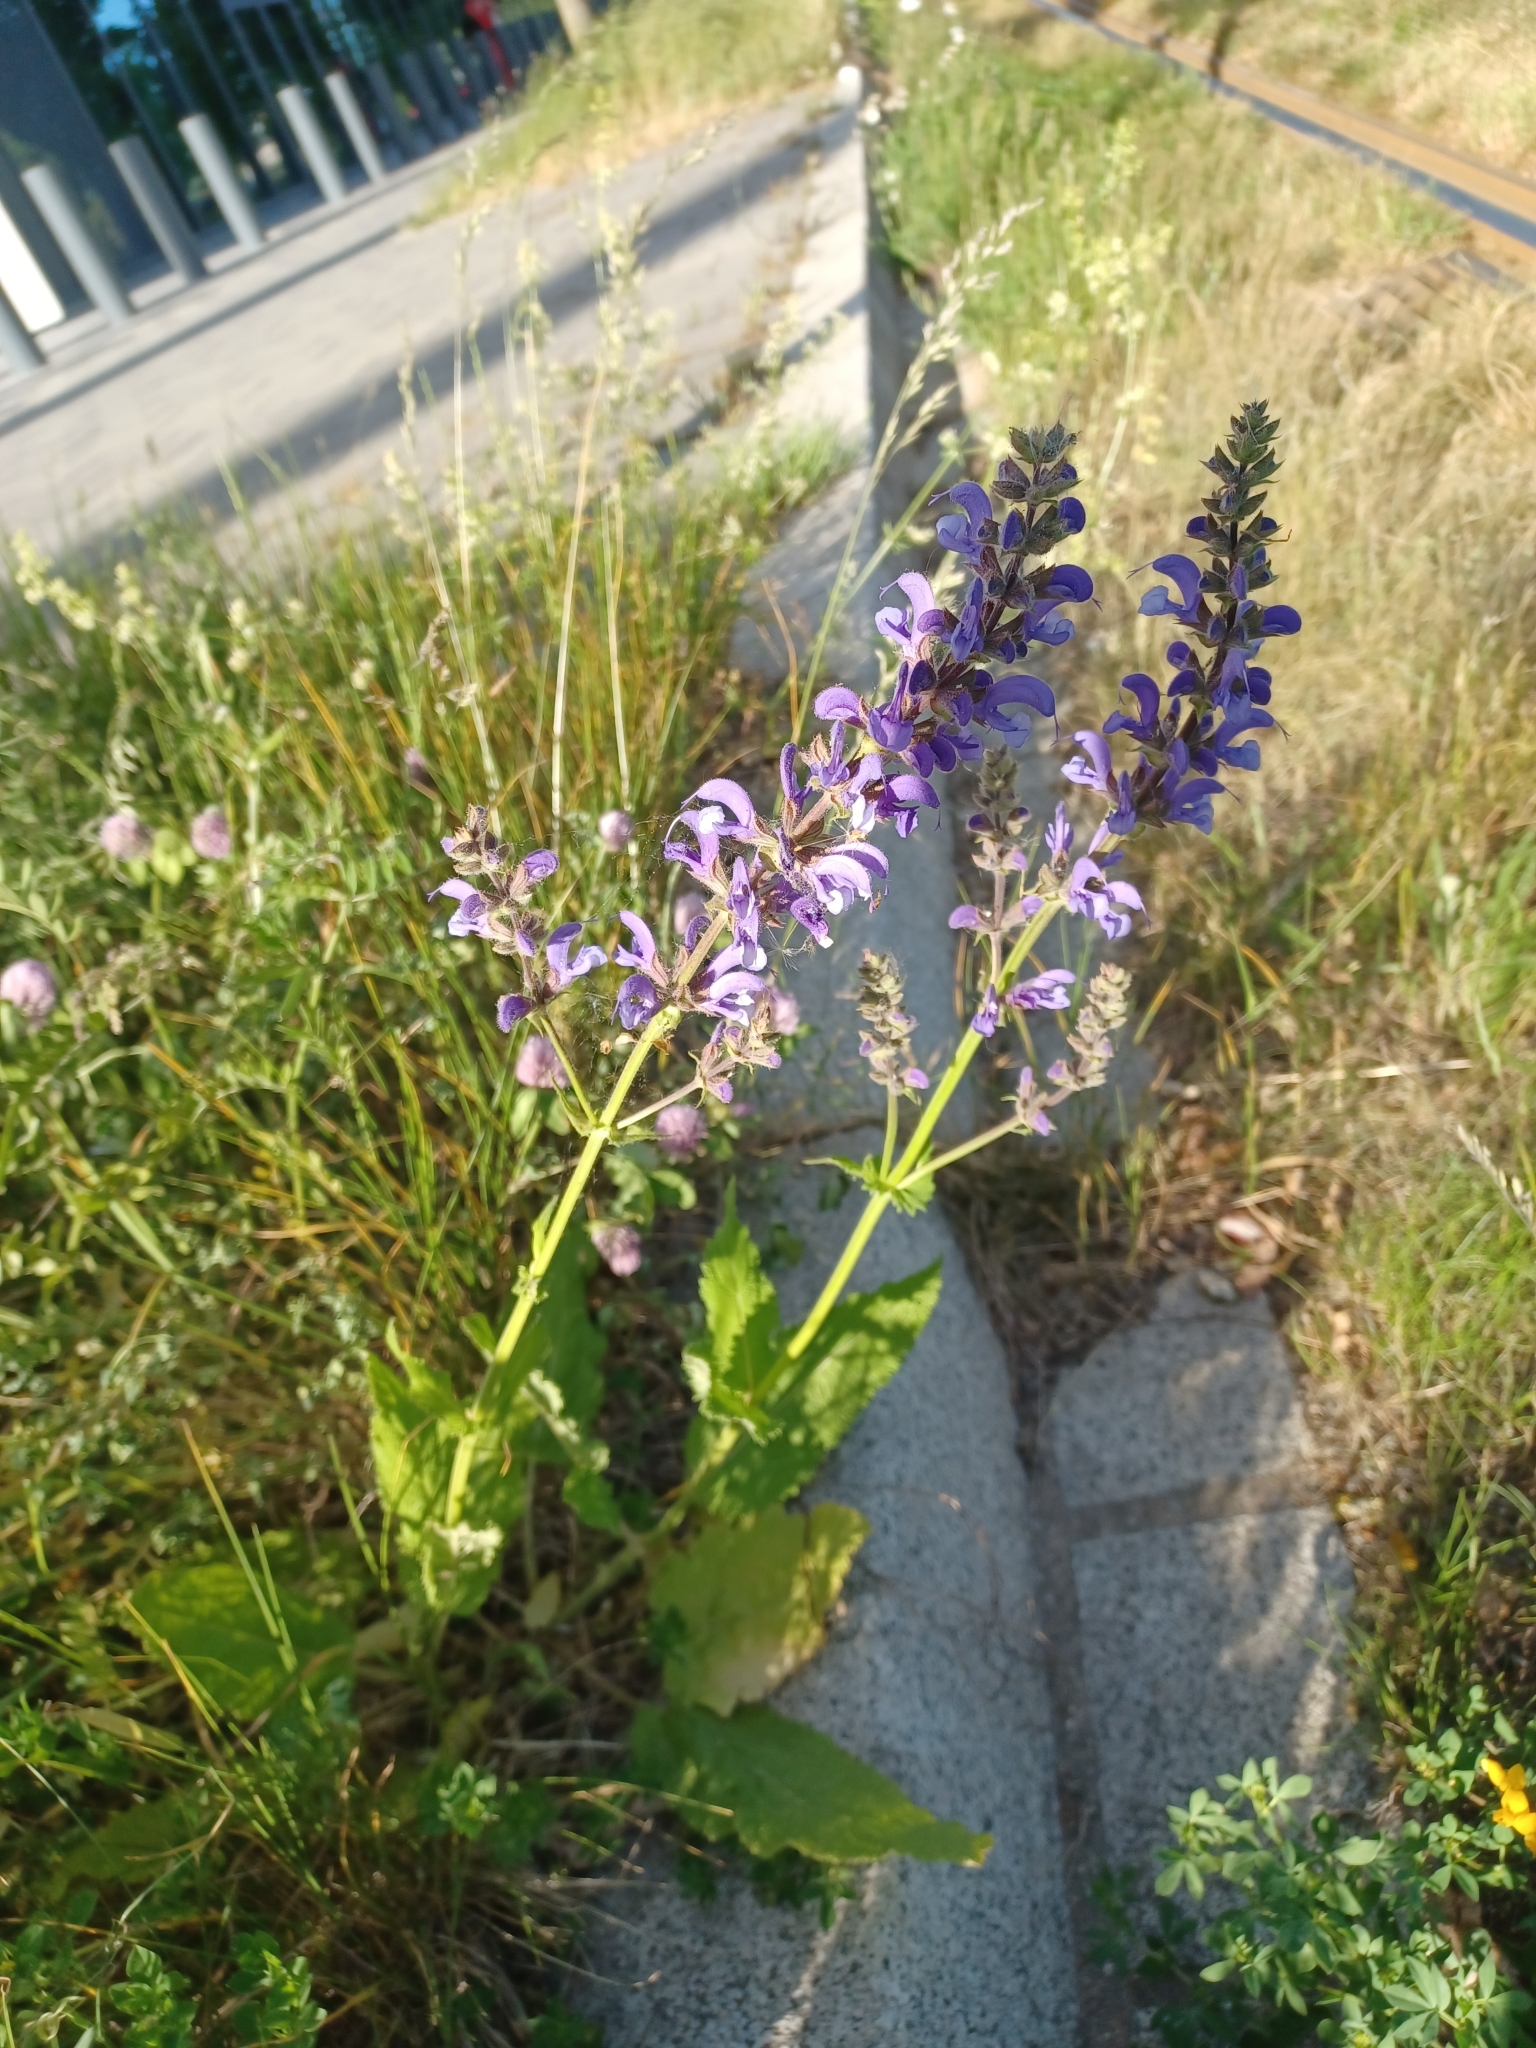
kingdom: Plantae
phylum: Tracheophyta
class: Magnoliopsida
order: Lamiales
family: Lamiaceae
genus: Salvia
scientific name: Salvia pratensis
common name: Meadow sage
